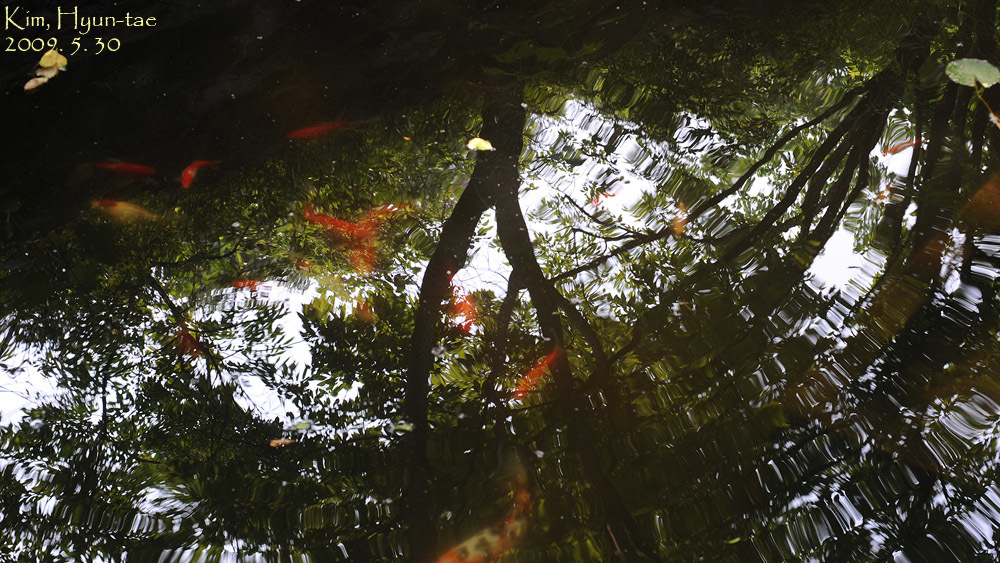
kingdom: Animalia
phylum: Chordata
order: Cypriniformes
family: Cyprinidae
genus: Cyprinus
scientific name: Cyprinus rubrofuscus
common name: Koi
